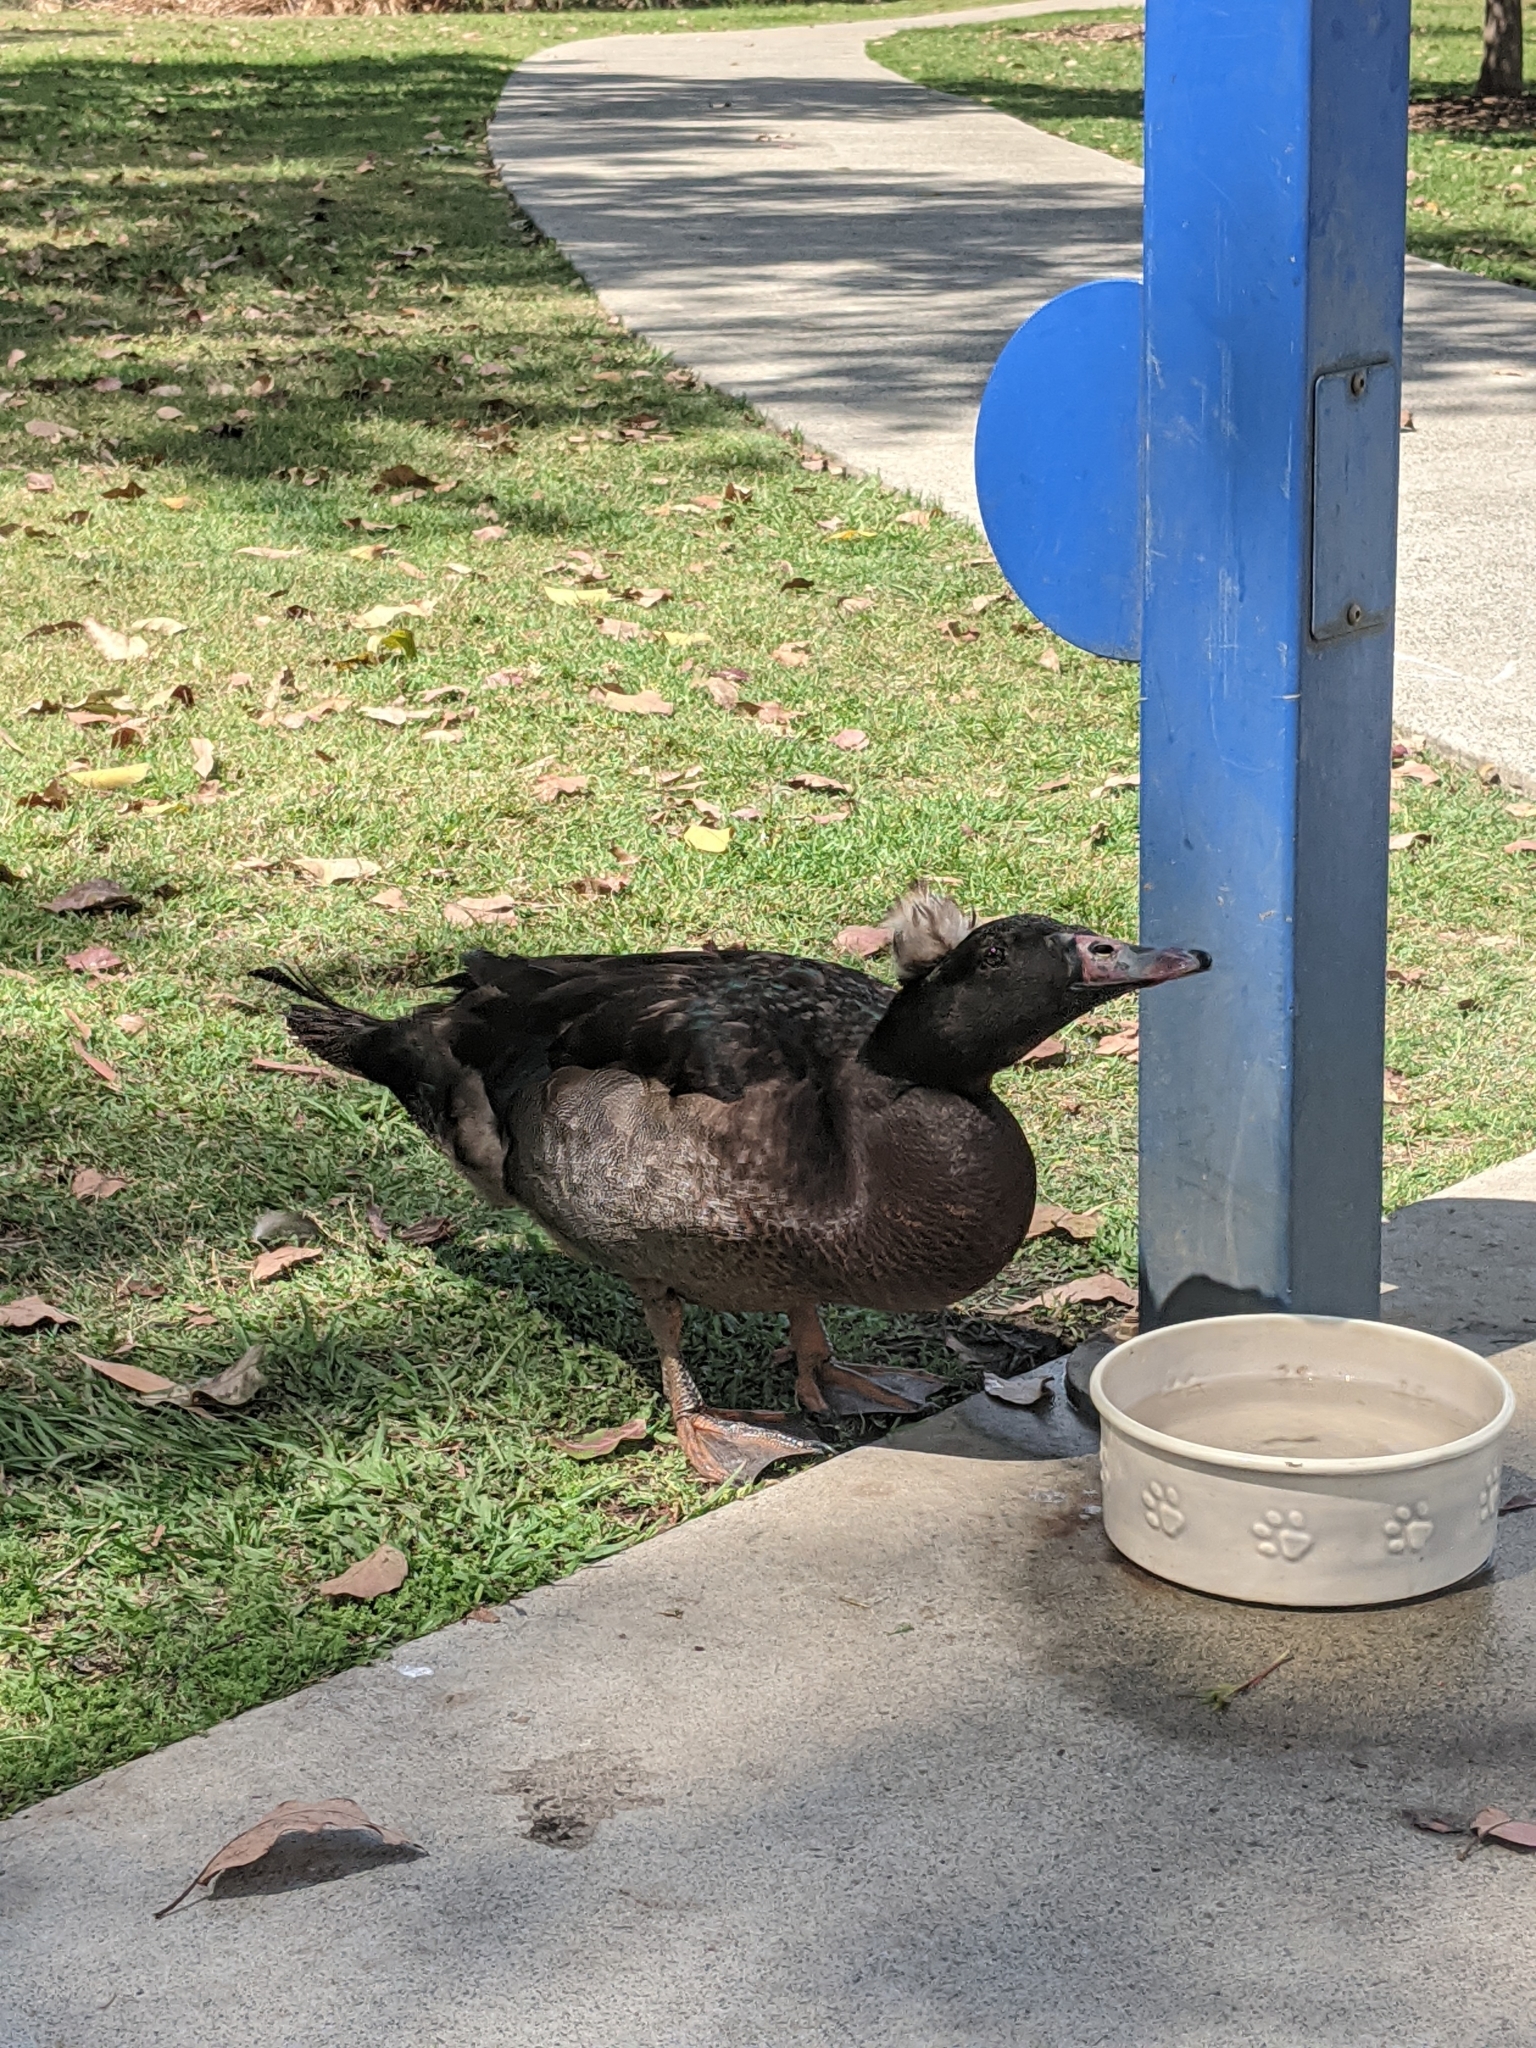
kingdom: Animalia
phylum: Chordata
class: Aves
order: Anseriformes
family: Anatidae
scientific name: Anatidae
